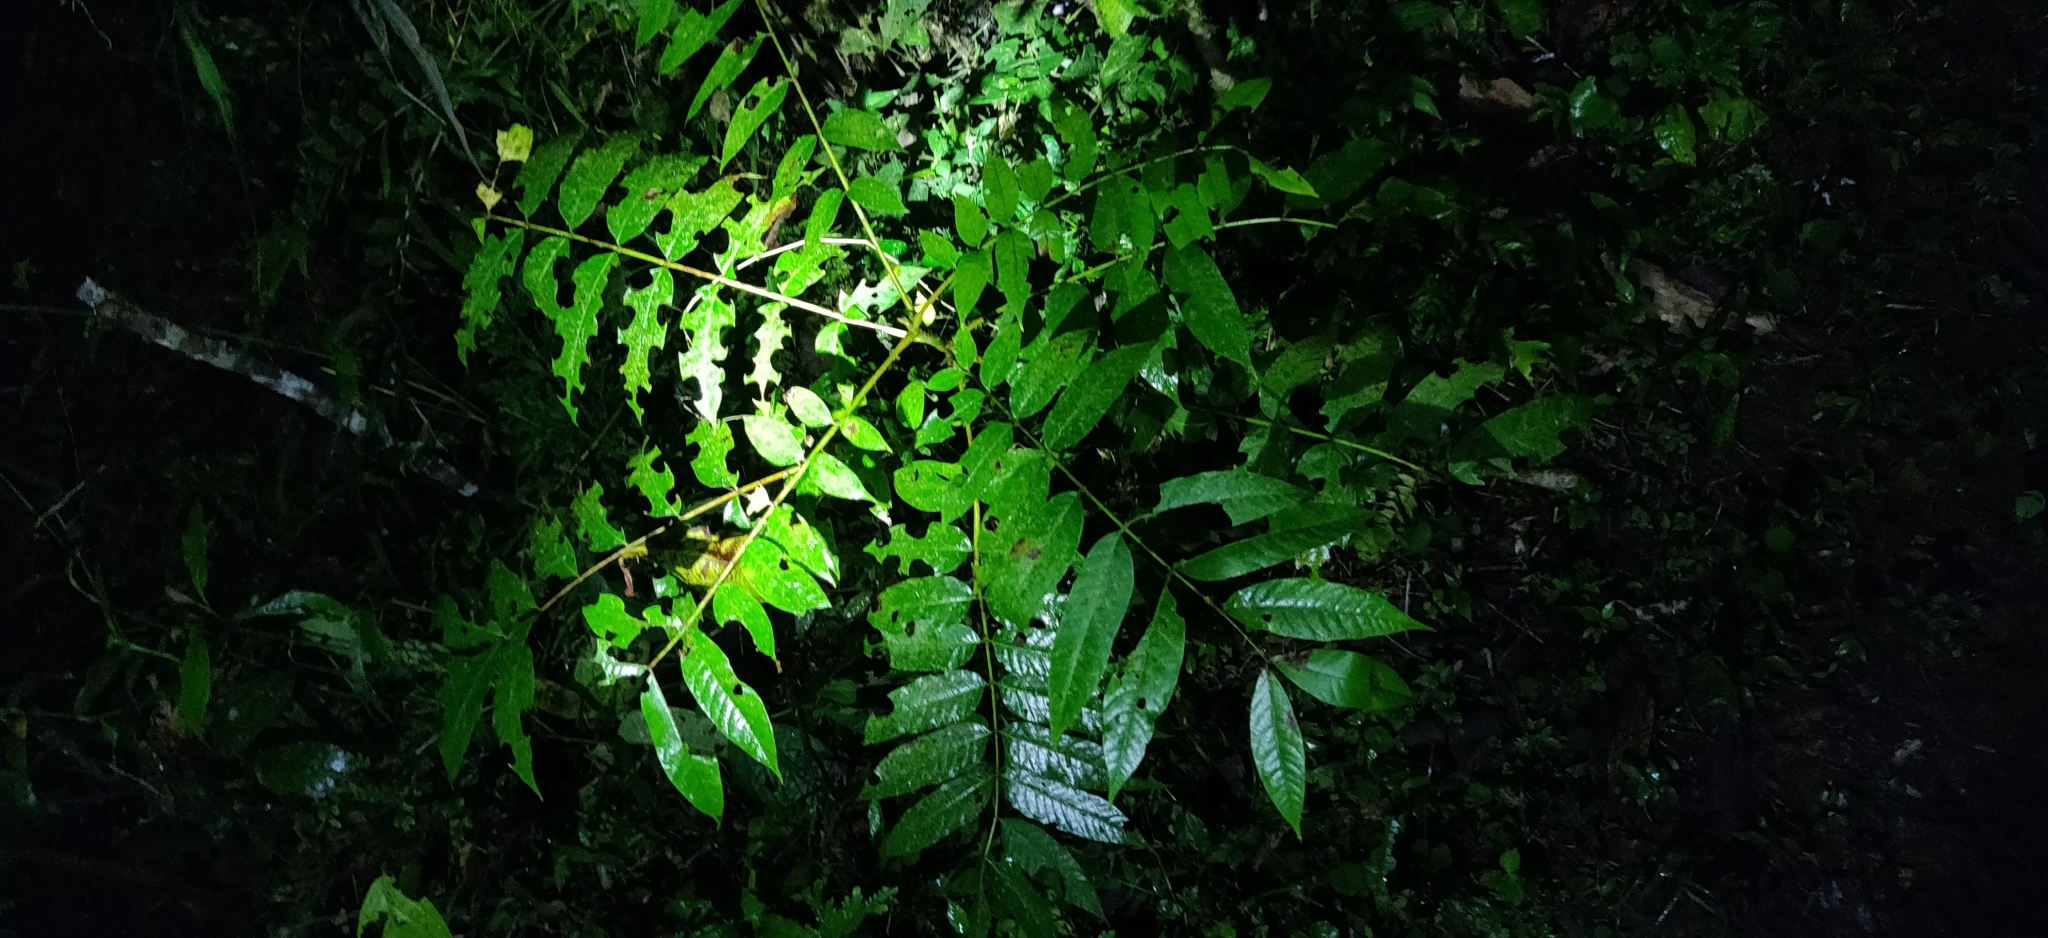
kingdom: Plantae
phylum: Tracheophyta
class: Magnoliopsida
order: Fagales
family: Juglandaceae
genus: Juglans
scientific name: Juglans olanchana
